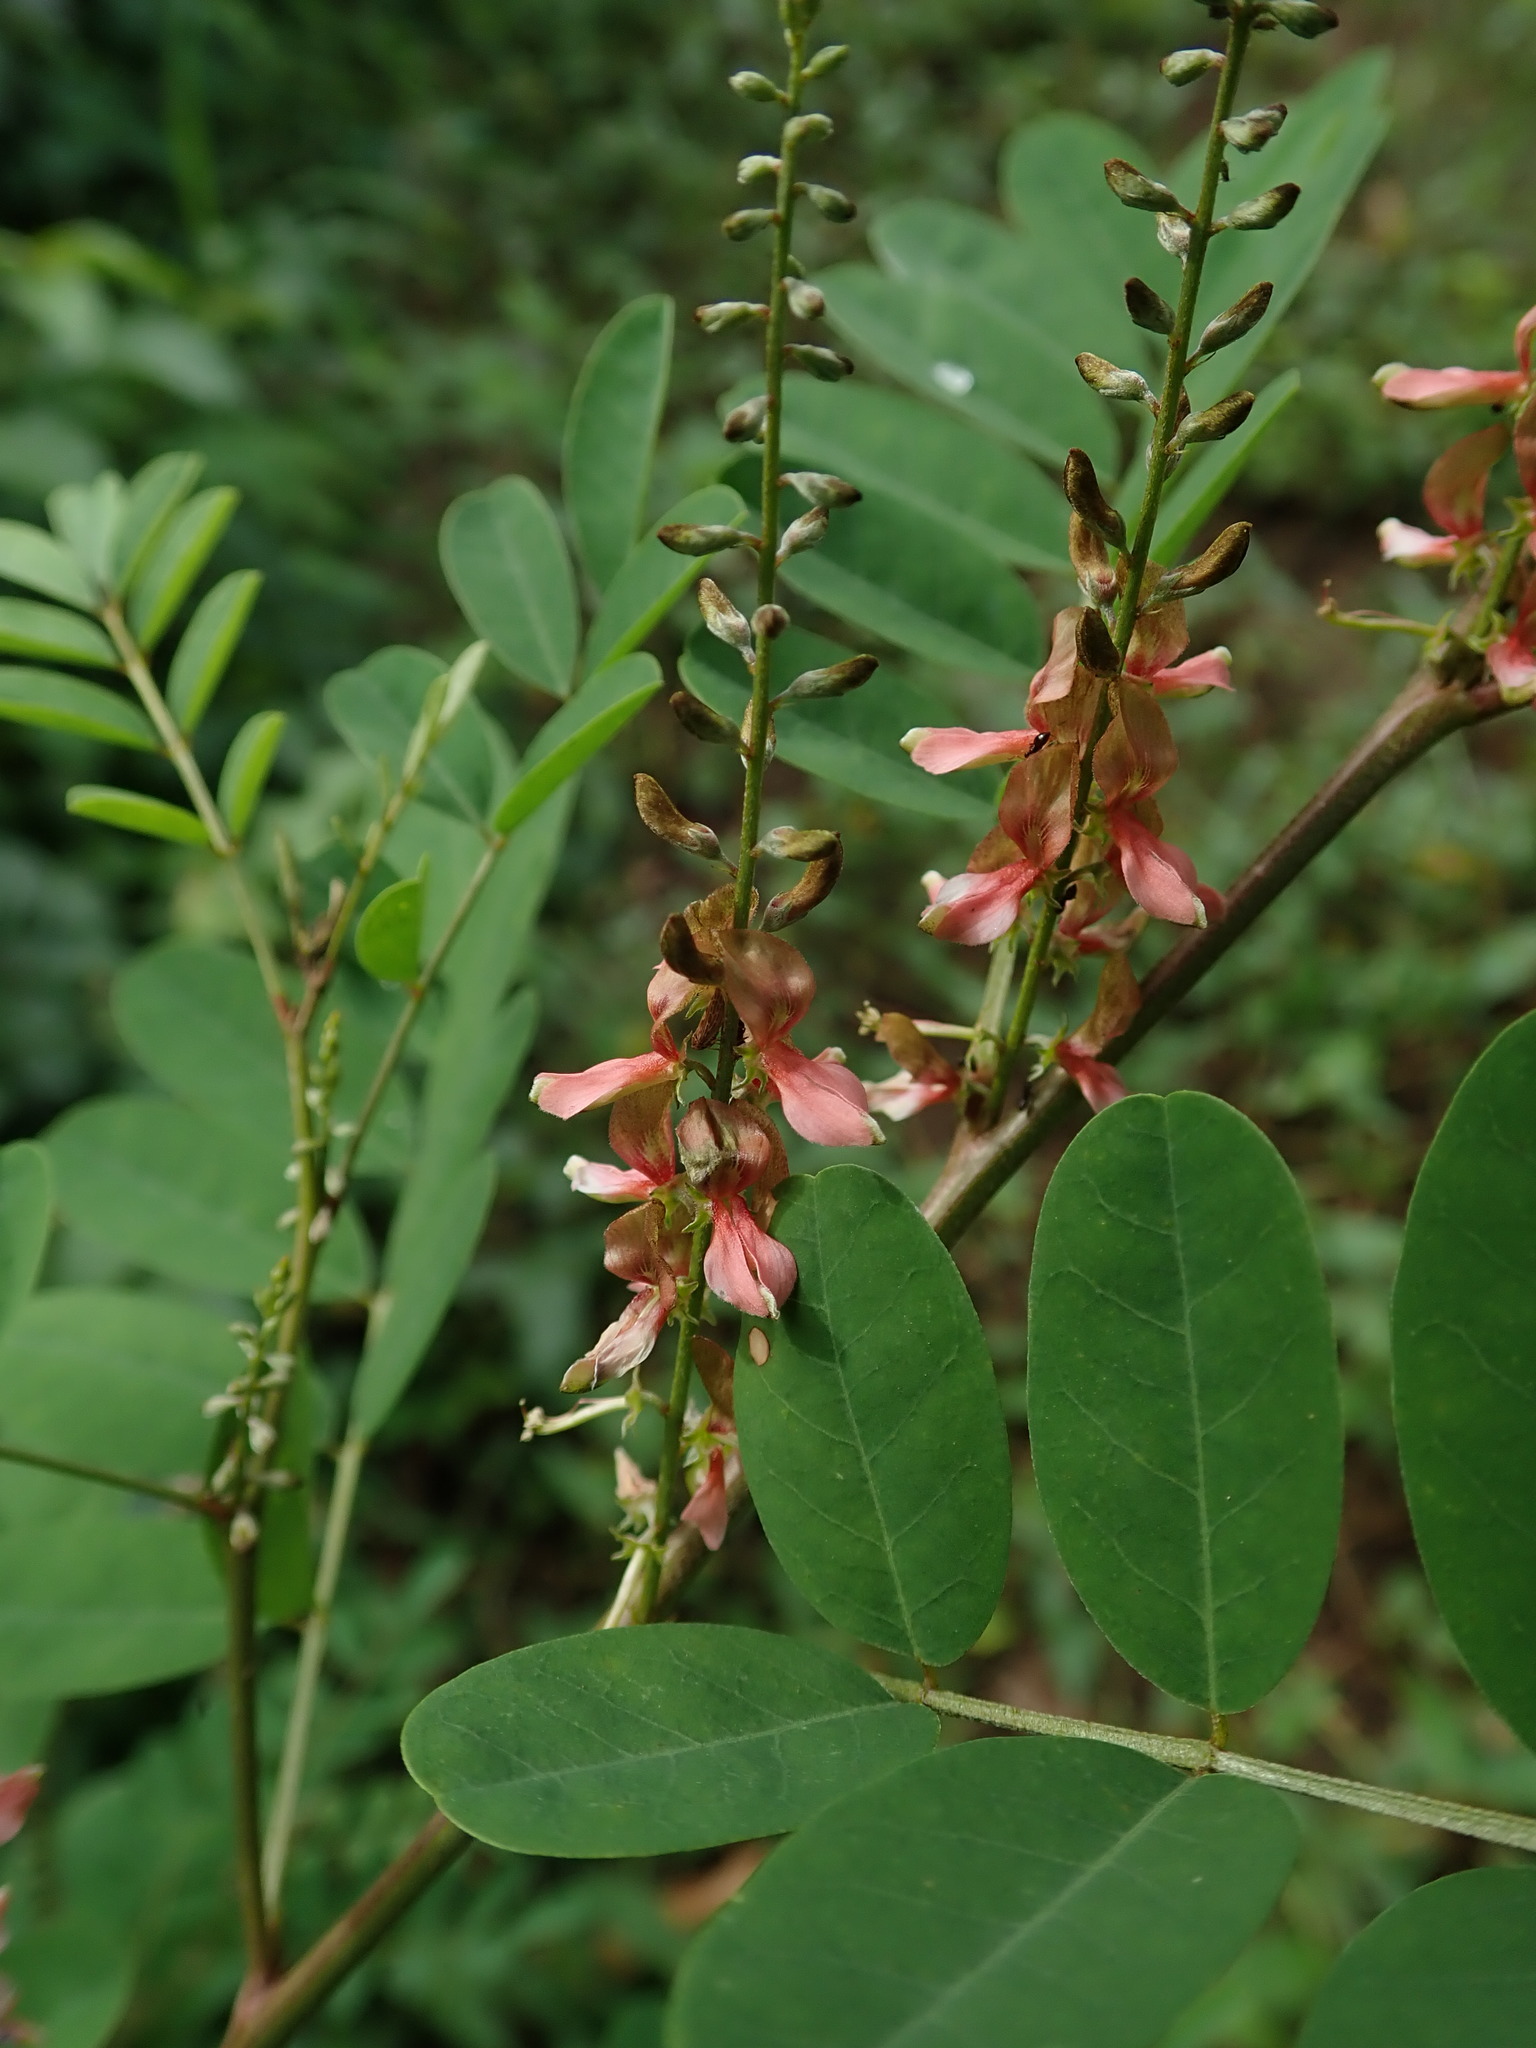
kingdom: Plantae
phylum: Tracheophyta
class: Magnoliopsida
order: Fabales
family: Fabaceae
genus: Indigofera
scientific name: Indigofera suffruticosa
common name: Anil de pasto
